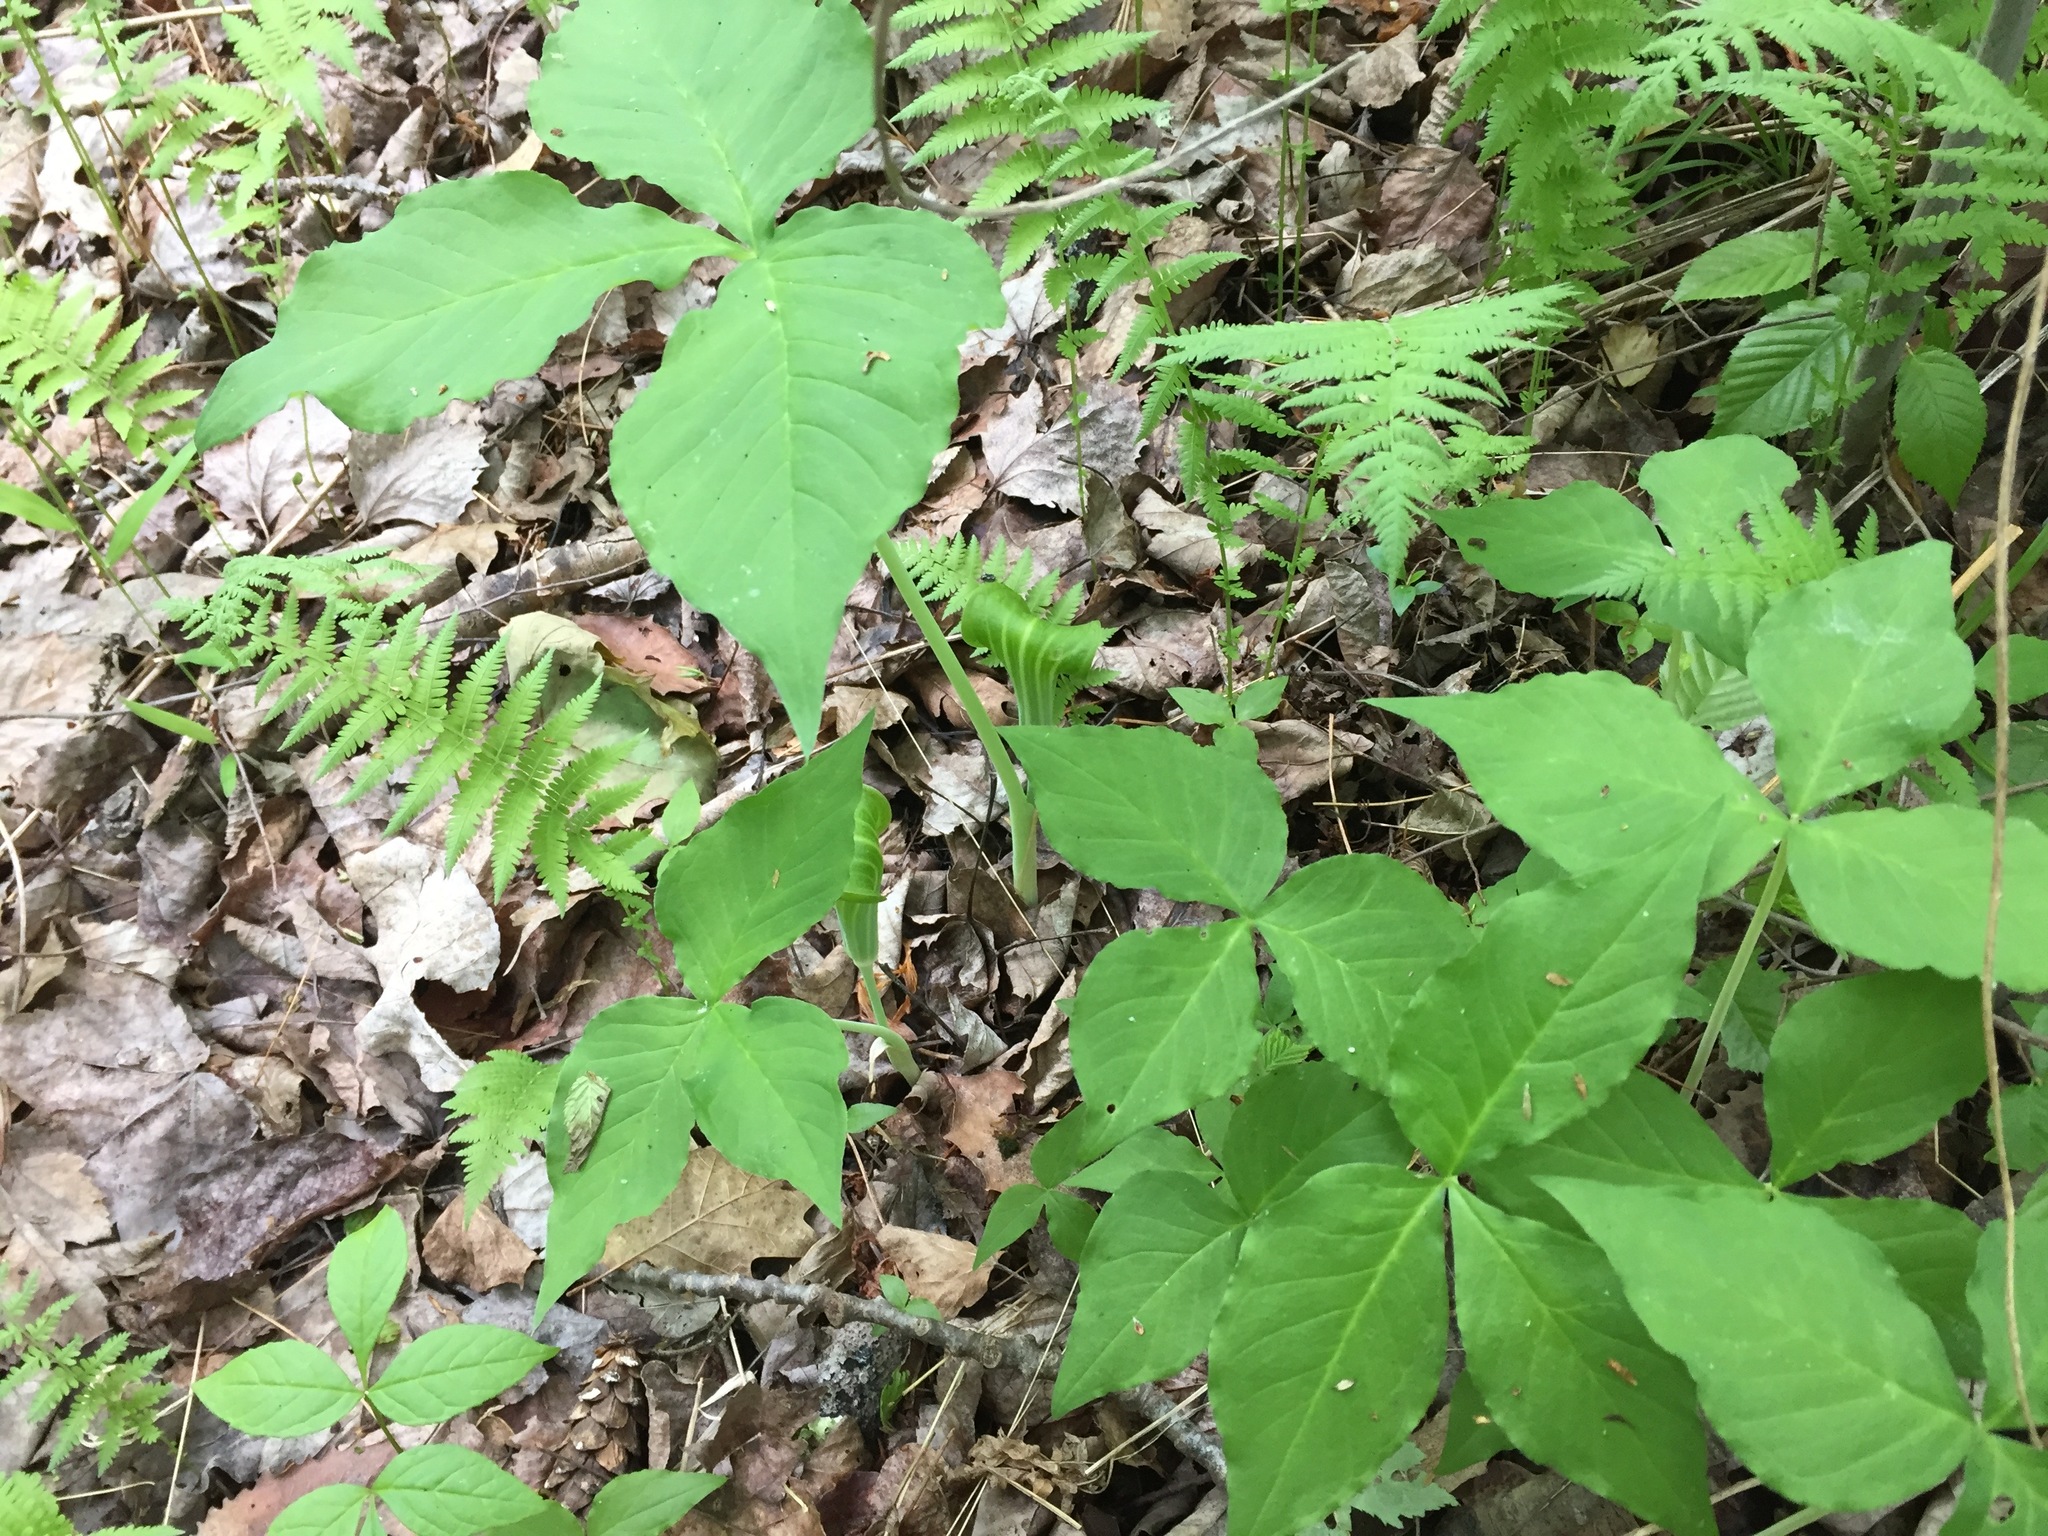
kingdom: Plantae
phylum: Tracheophyta
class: Liliopsida
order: Alismatales
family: Araceae
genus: Arisaema
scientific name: Arisaema triphyllum
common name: Jack-in-the-pulpit
